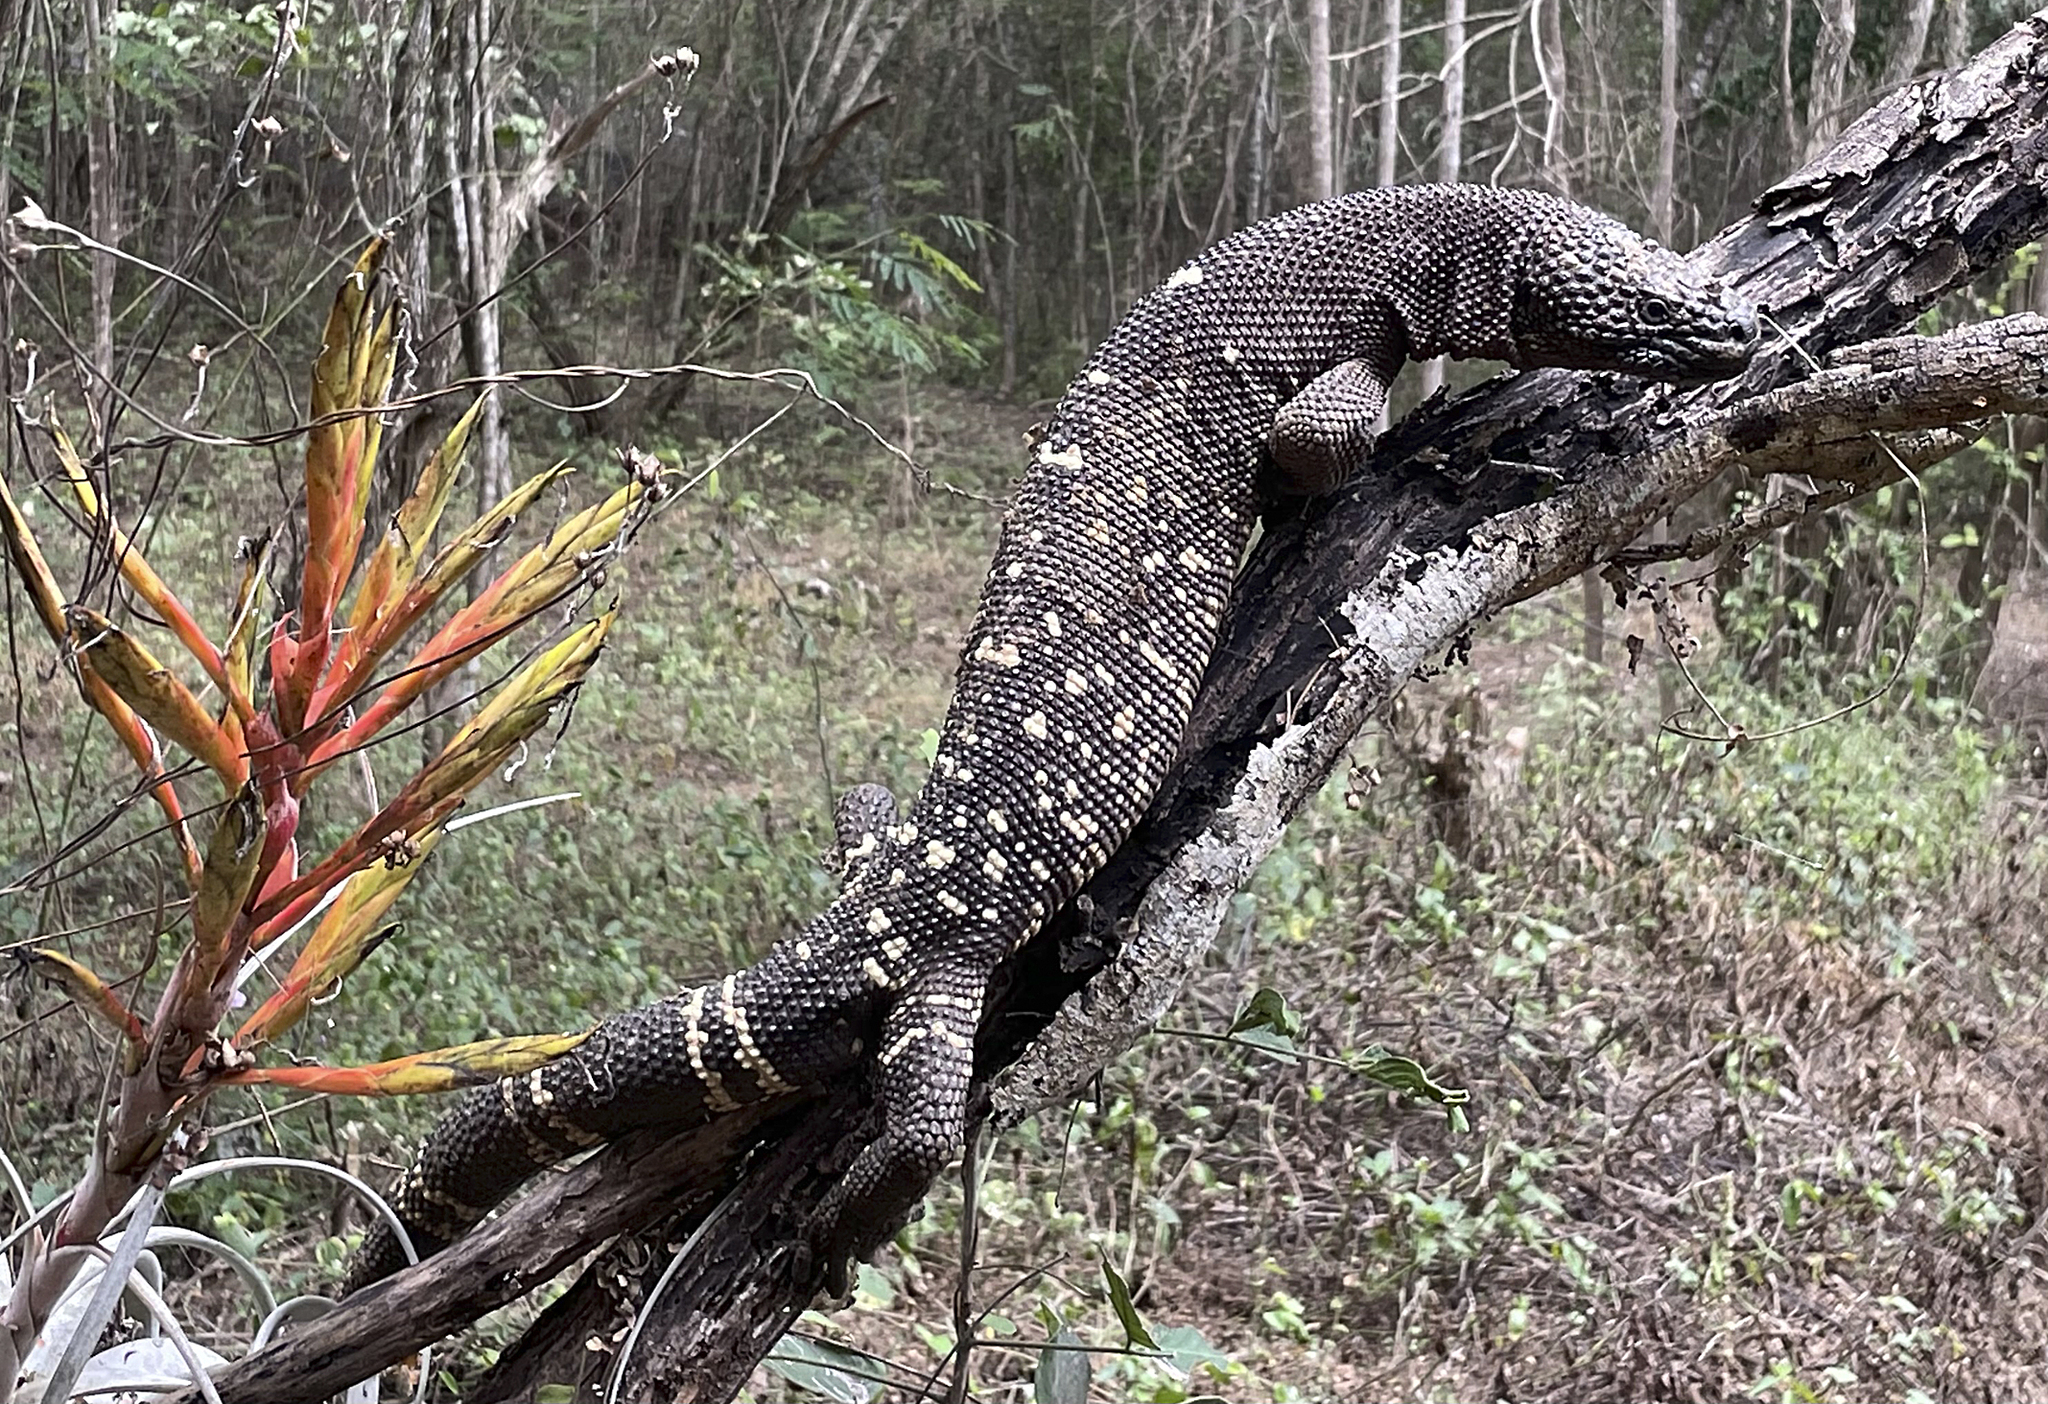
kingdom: Animalia
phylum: Chordata
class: Squamata
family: Helodermatidae
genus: Heloderma
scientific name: Heloderma charlesbogerti
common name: Guatemala beaded lizard
